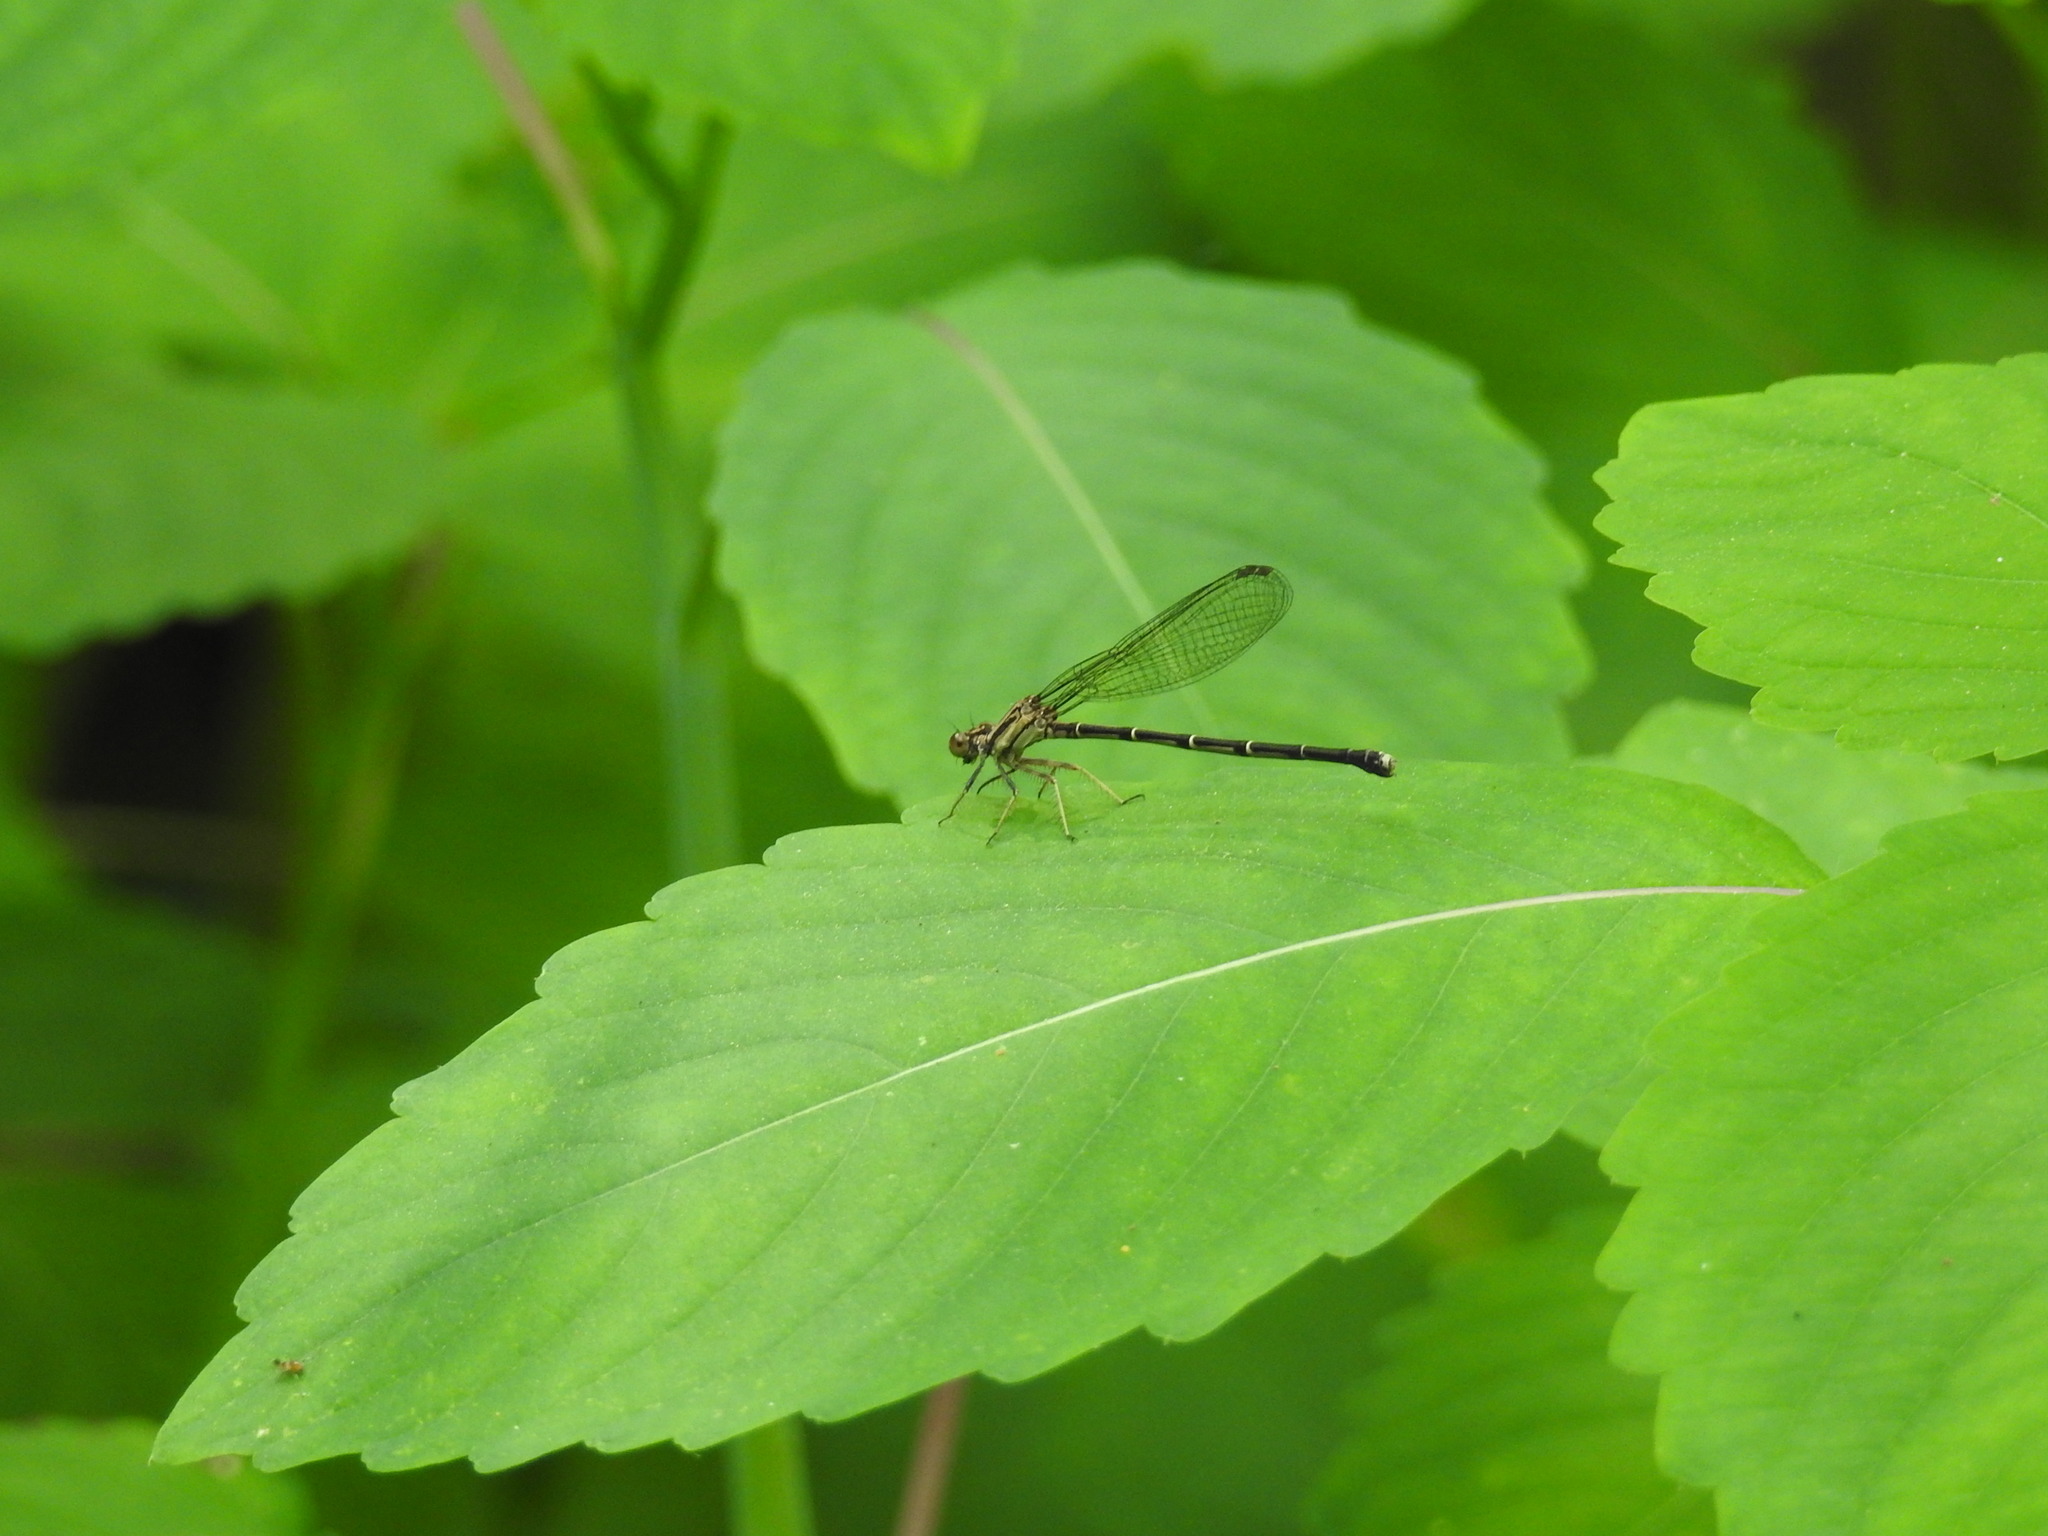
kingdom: Animalia
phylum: Arthropoda
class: Insecta
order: Odonata
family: Coenagrionidae
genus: Argia
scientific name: Argia tibialis
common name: Blue-tipped dancer
